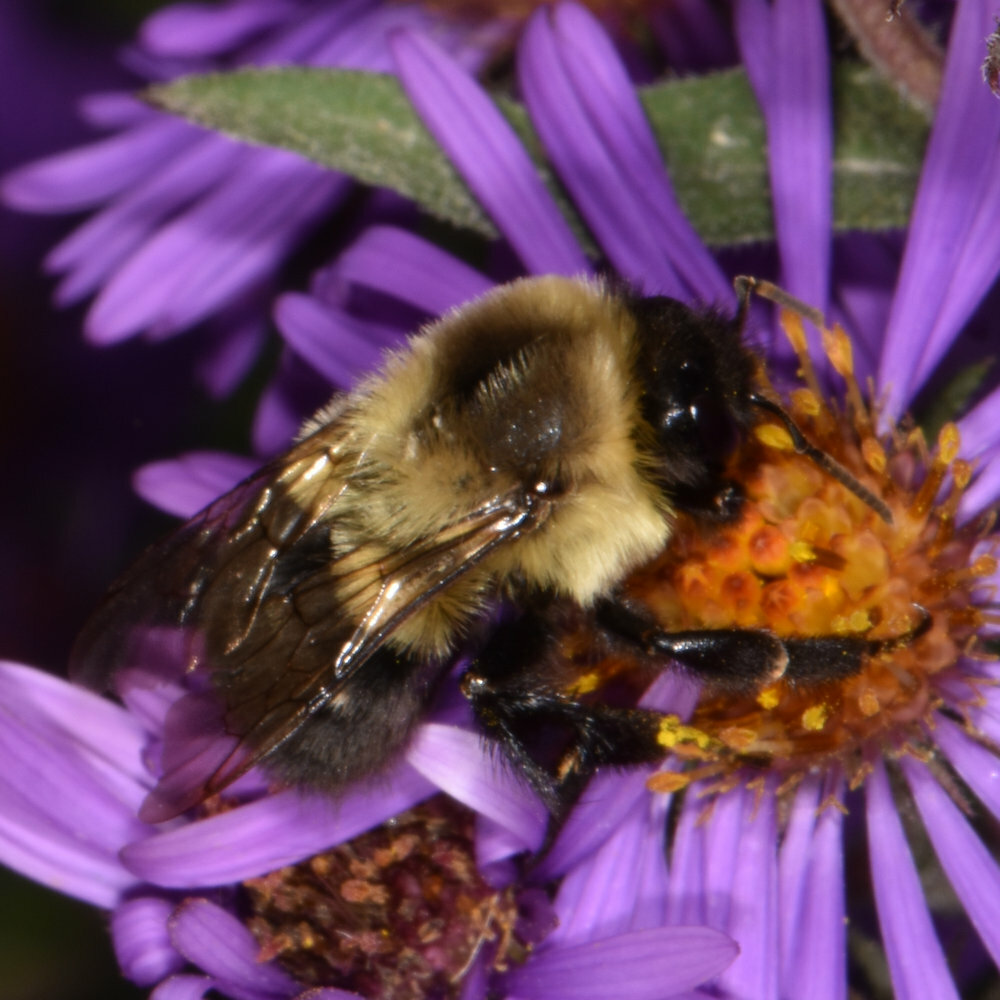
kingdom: Animalia
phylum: Arthropoda
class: Insecta
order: Hymenoptera
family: Apidae
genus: Bombus
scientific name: Bombus impatiens
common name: Common eastern bumble bee
